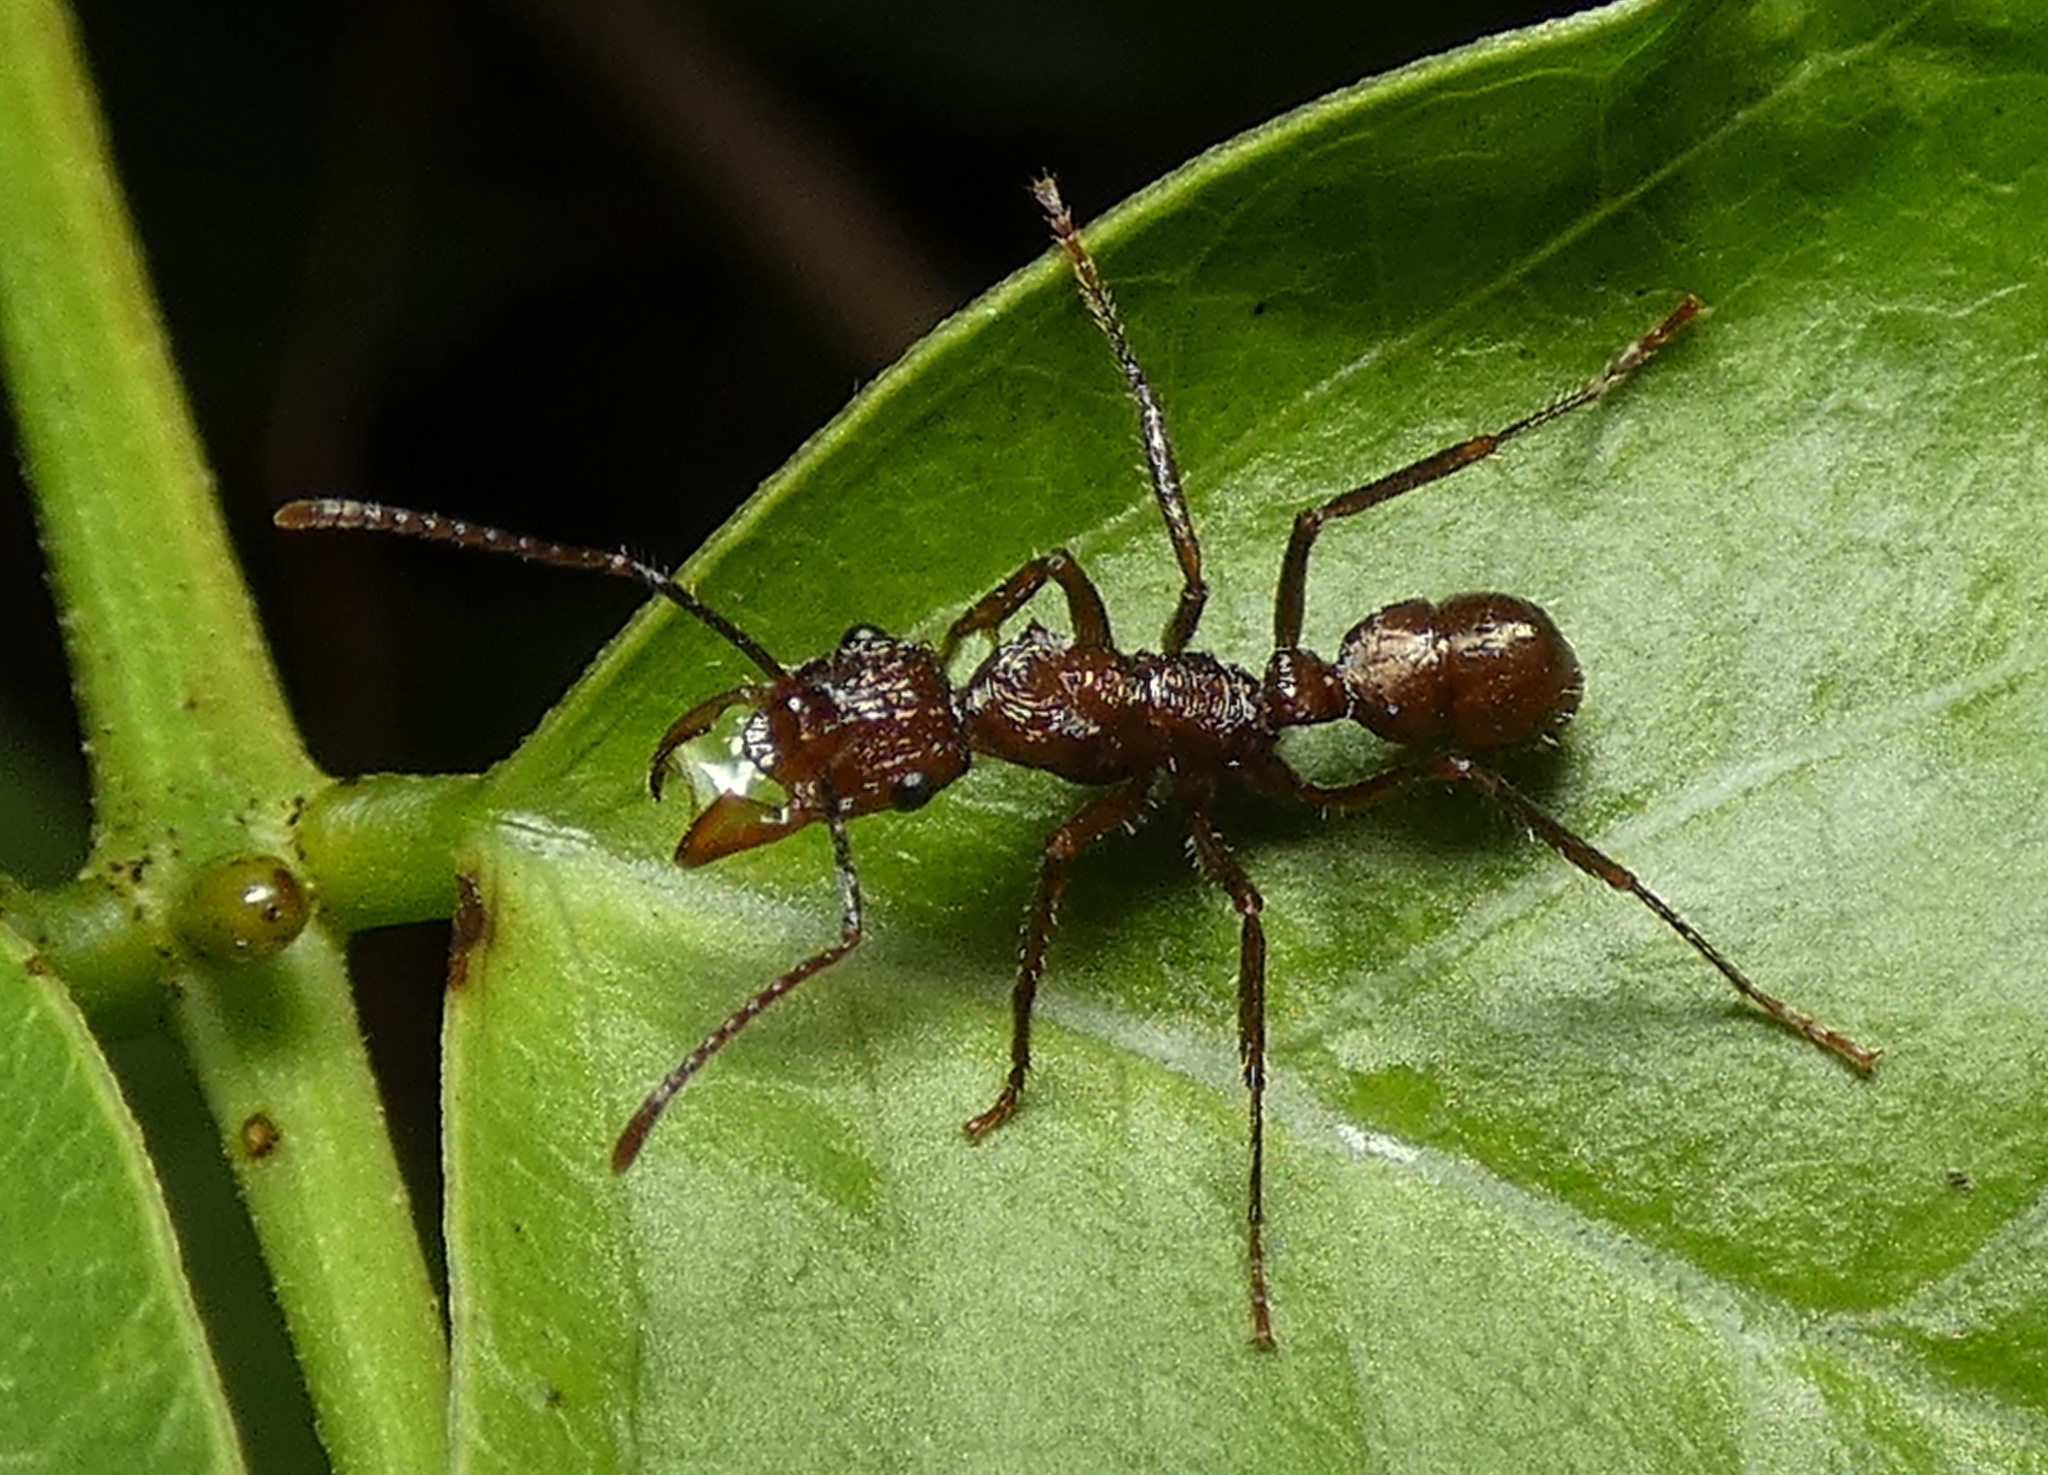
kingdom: Animalia
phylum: Arthropoda
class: Insecta
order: Hymenoptera
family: Formicidae
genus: Ectatomma
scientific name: Ectatomma tuberculatum
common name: Ant
